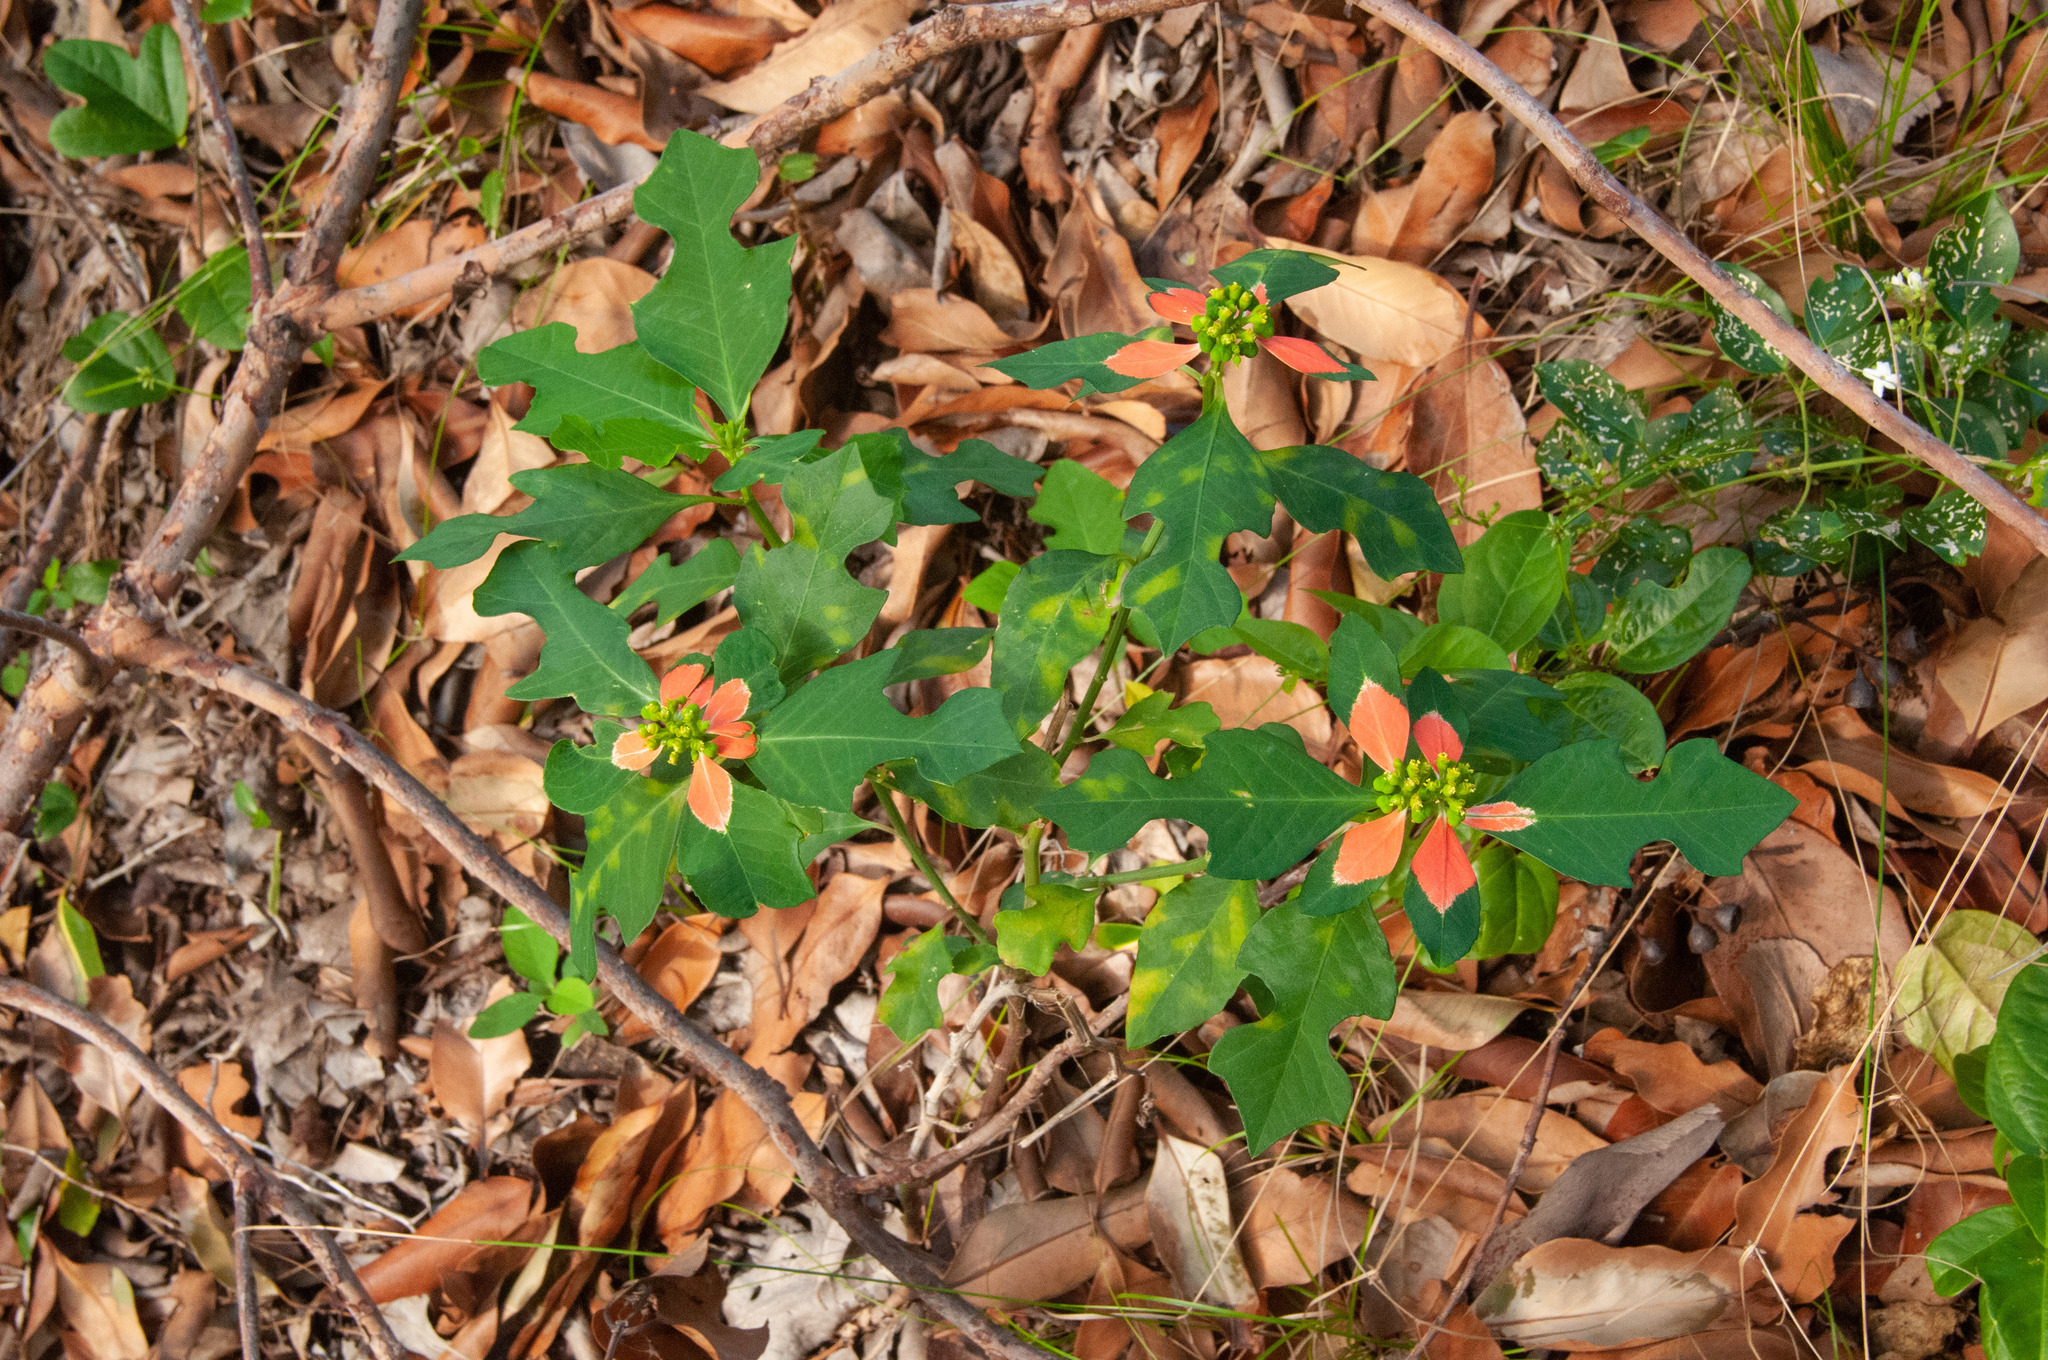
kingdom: Plantae
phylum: Tracheophyta
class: Magnoliopsida
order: Malpighiales
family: Euphorbiaceae
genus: Euphorbia
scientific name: Euphorbia heterophylla
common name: Mexican fireplant
